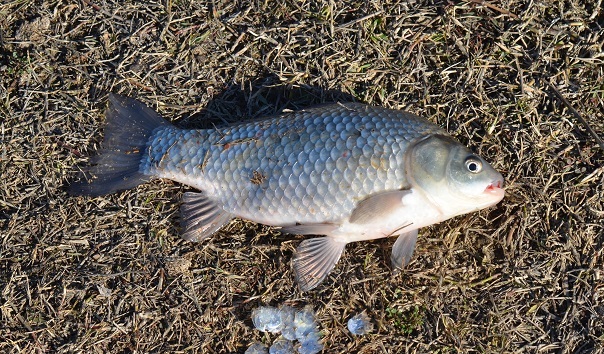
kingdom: Animalia
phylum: Chordata
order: Cypriniformes
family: Cyprinidae
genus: Carassius
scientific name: Carassius gibelio
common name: Prussian carp
